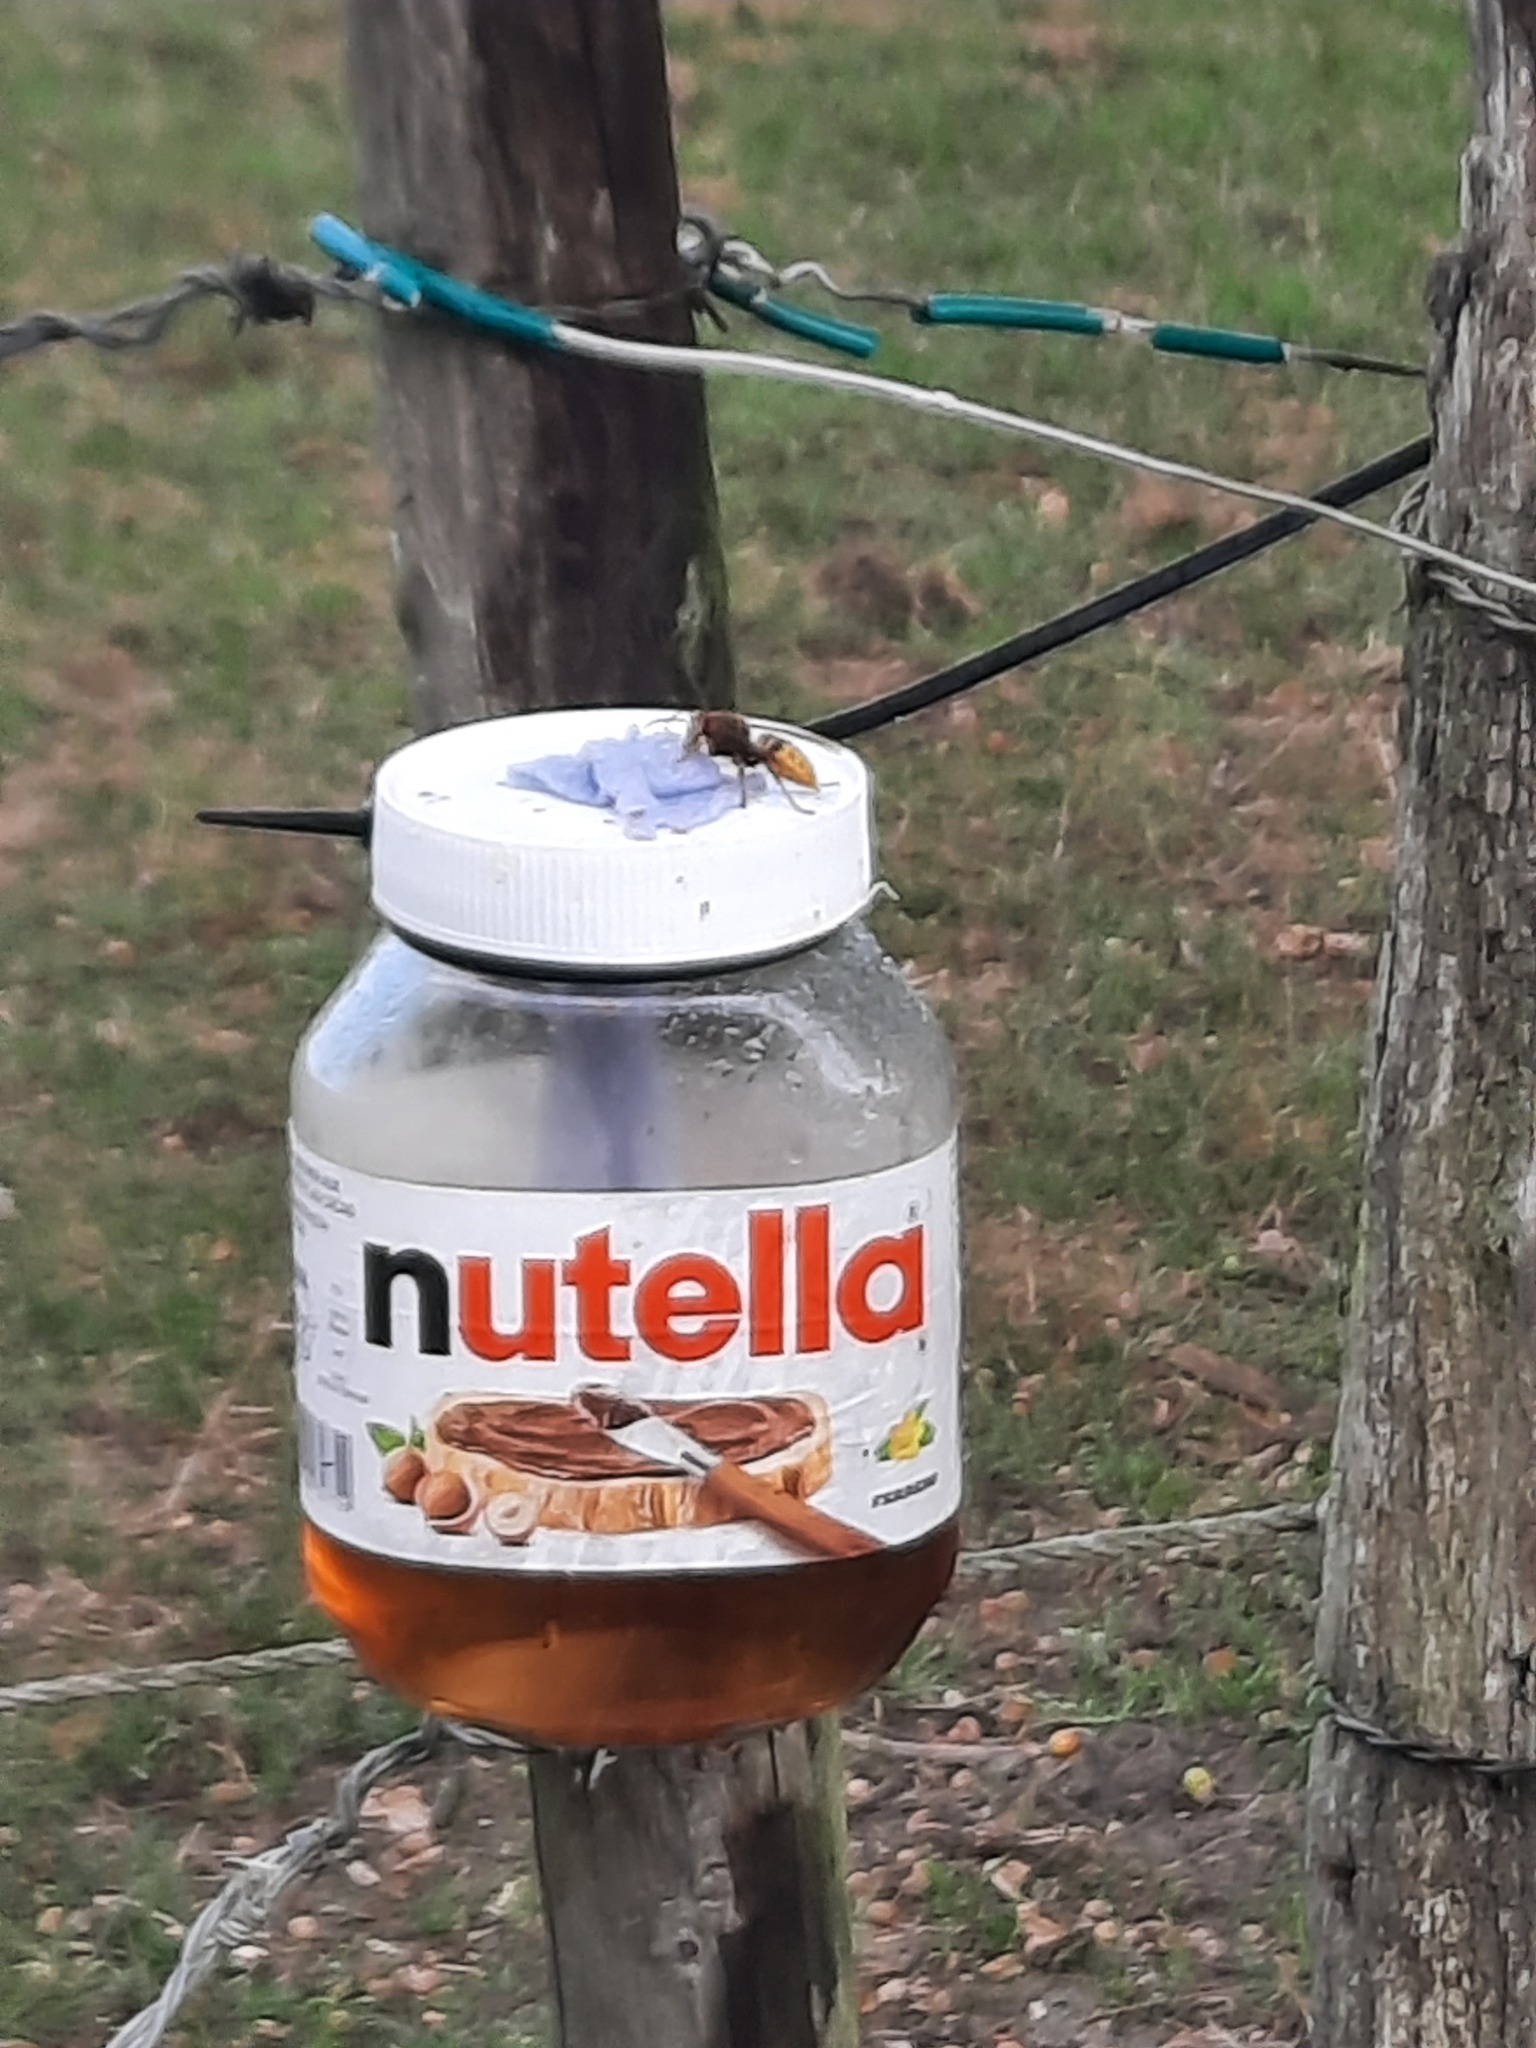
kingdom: Animalia
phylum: Arthropoda
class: Insecta
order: Hymenoptera
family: Vespidae
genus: Vespa
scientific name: Vespa crabro
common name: Hornet
